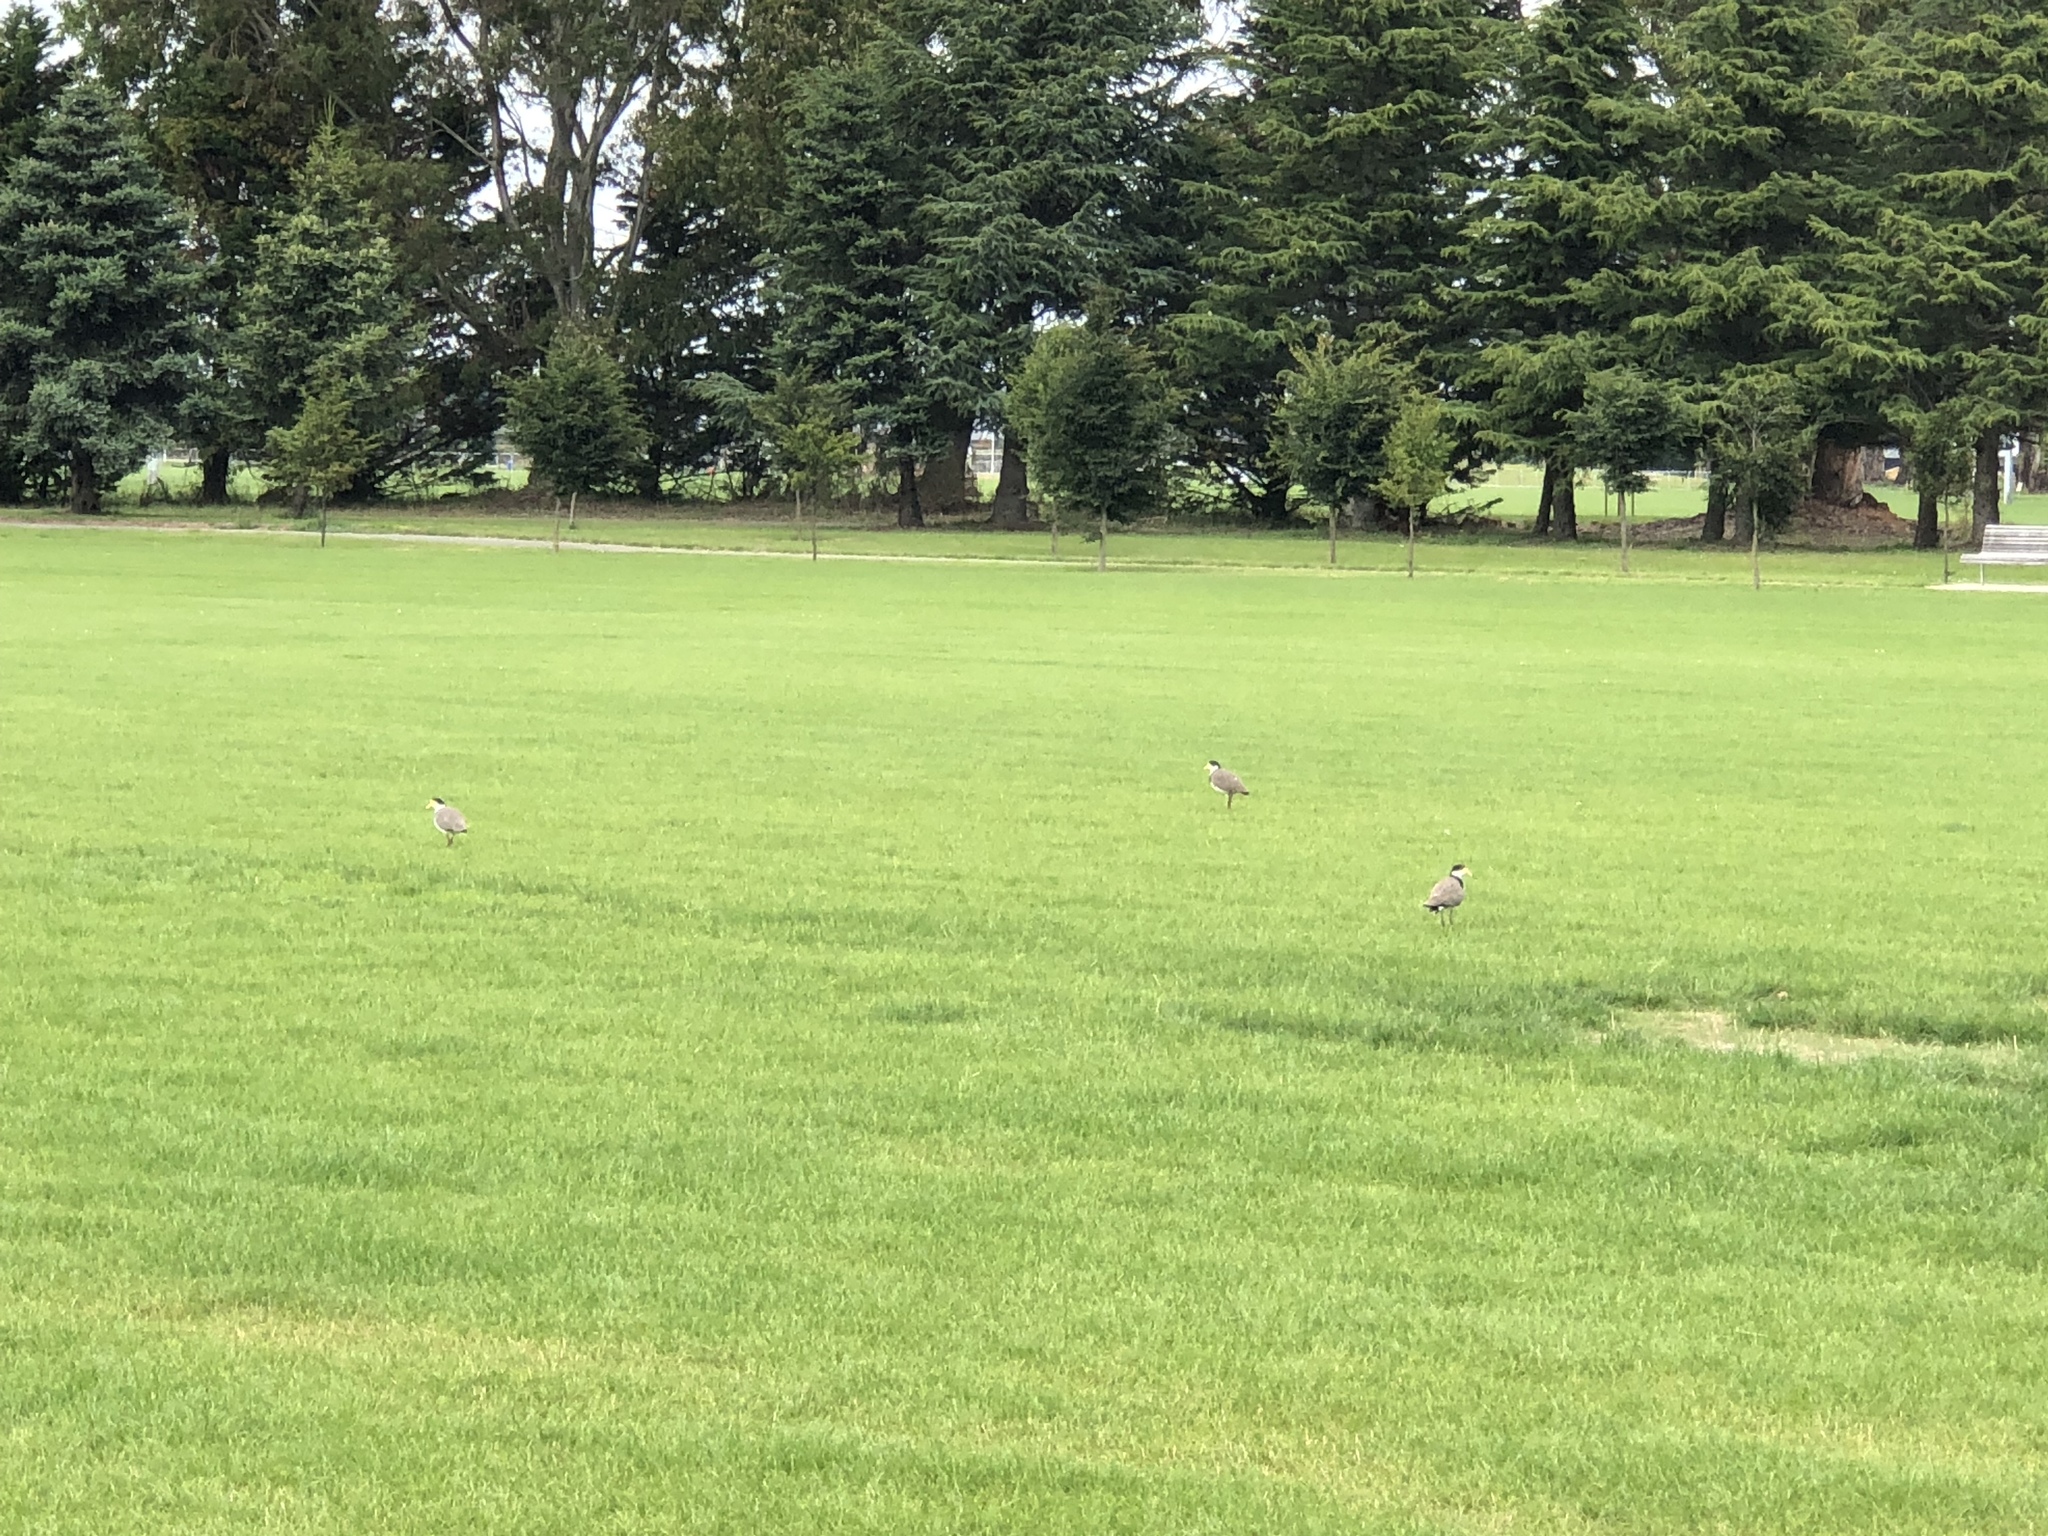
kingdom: Animalia
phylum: Chordata
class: Aves
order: Charadriiformes
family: Charadriidae
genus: Vanellus
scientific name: Vanellus miles
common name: Masked lapwing
